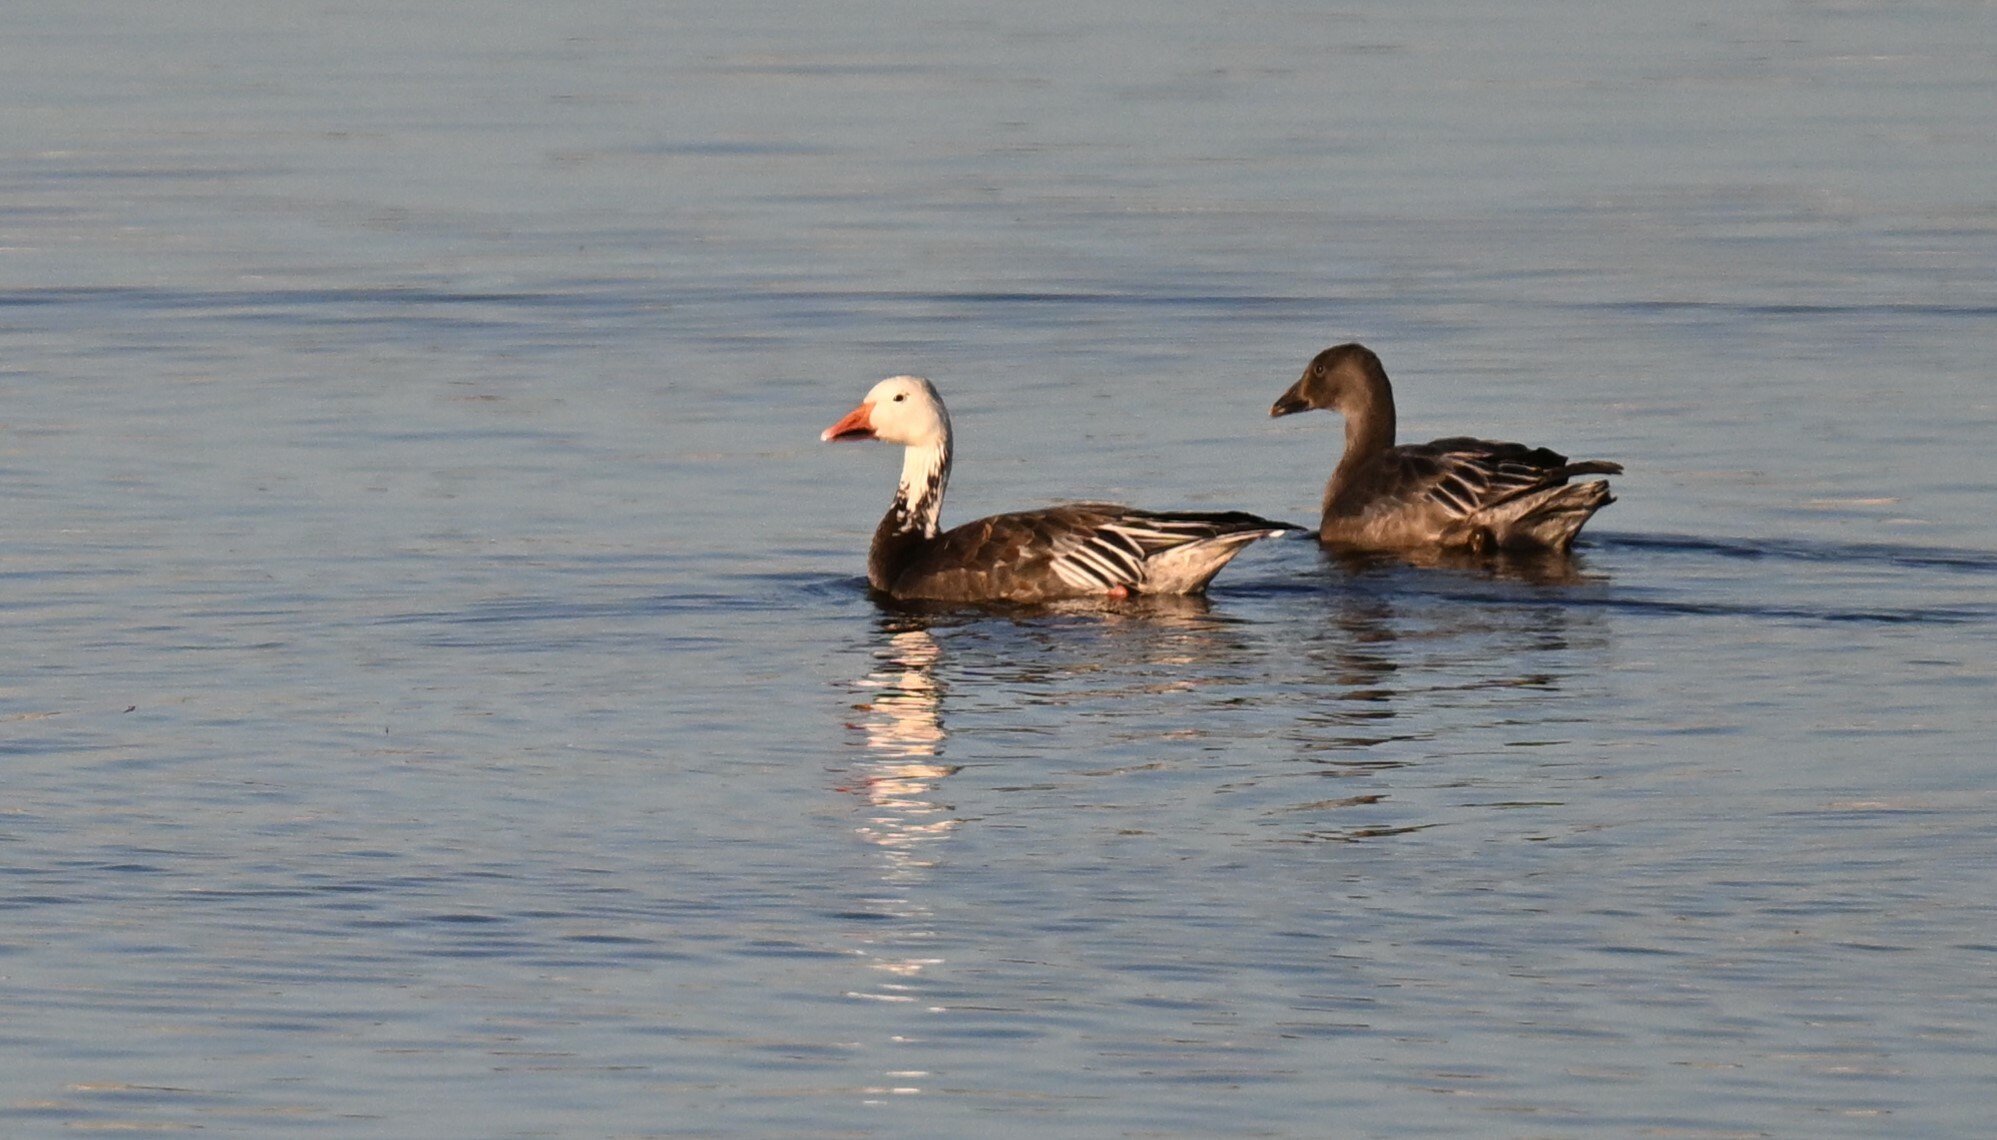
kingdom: Animalia
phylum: Chordata
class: Aves
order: Anseriformes
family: Anatidae
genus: Anser
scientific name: Anser caerulescens
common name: Snow goose
